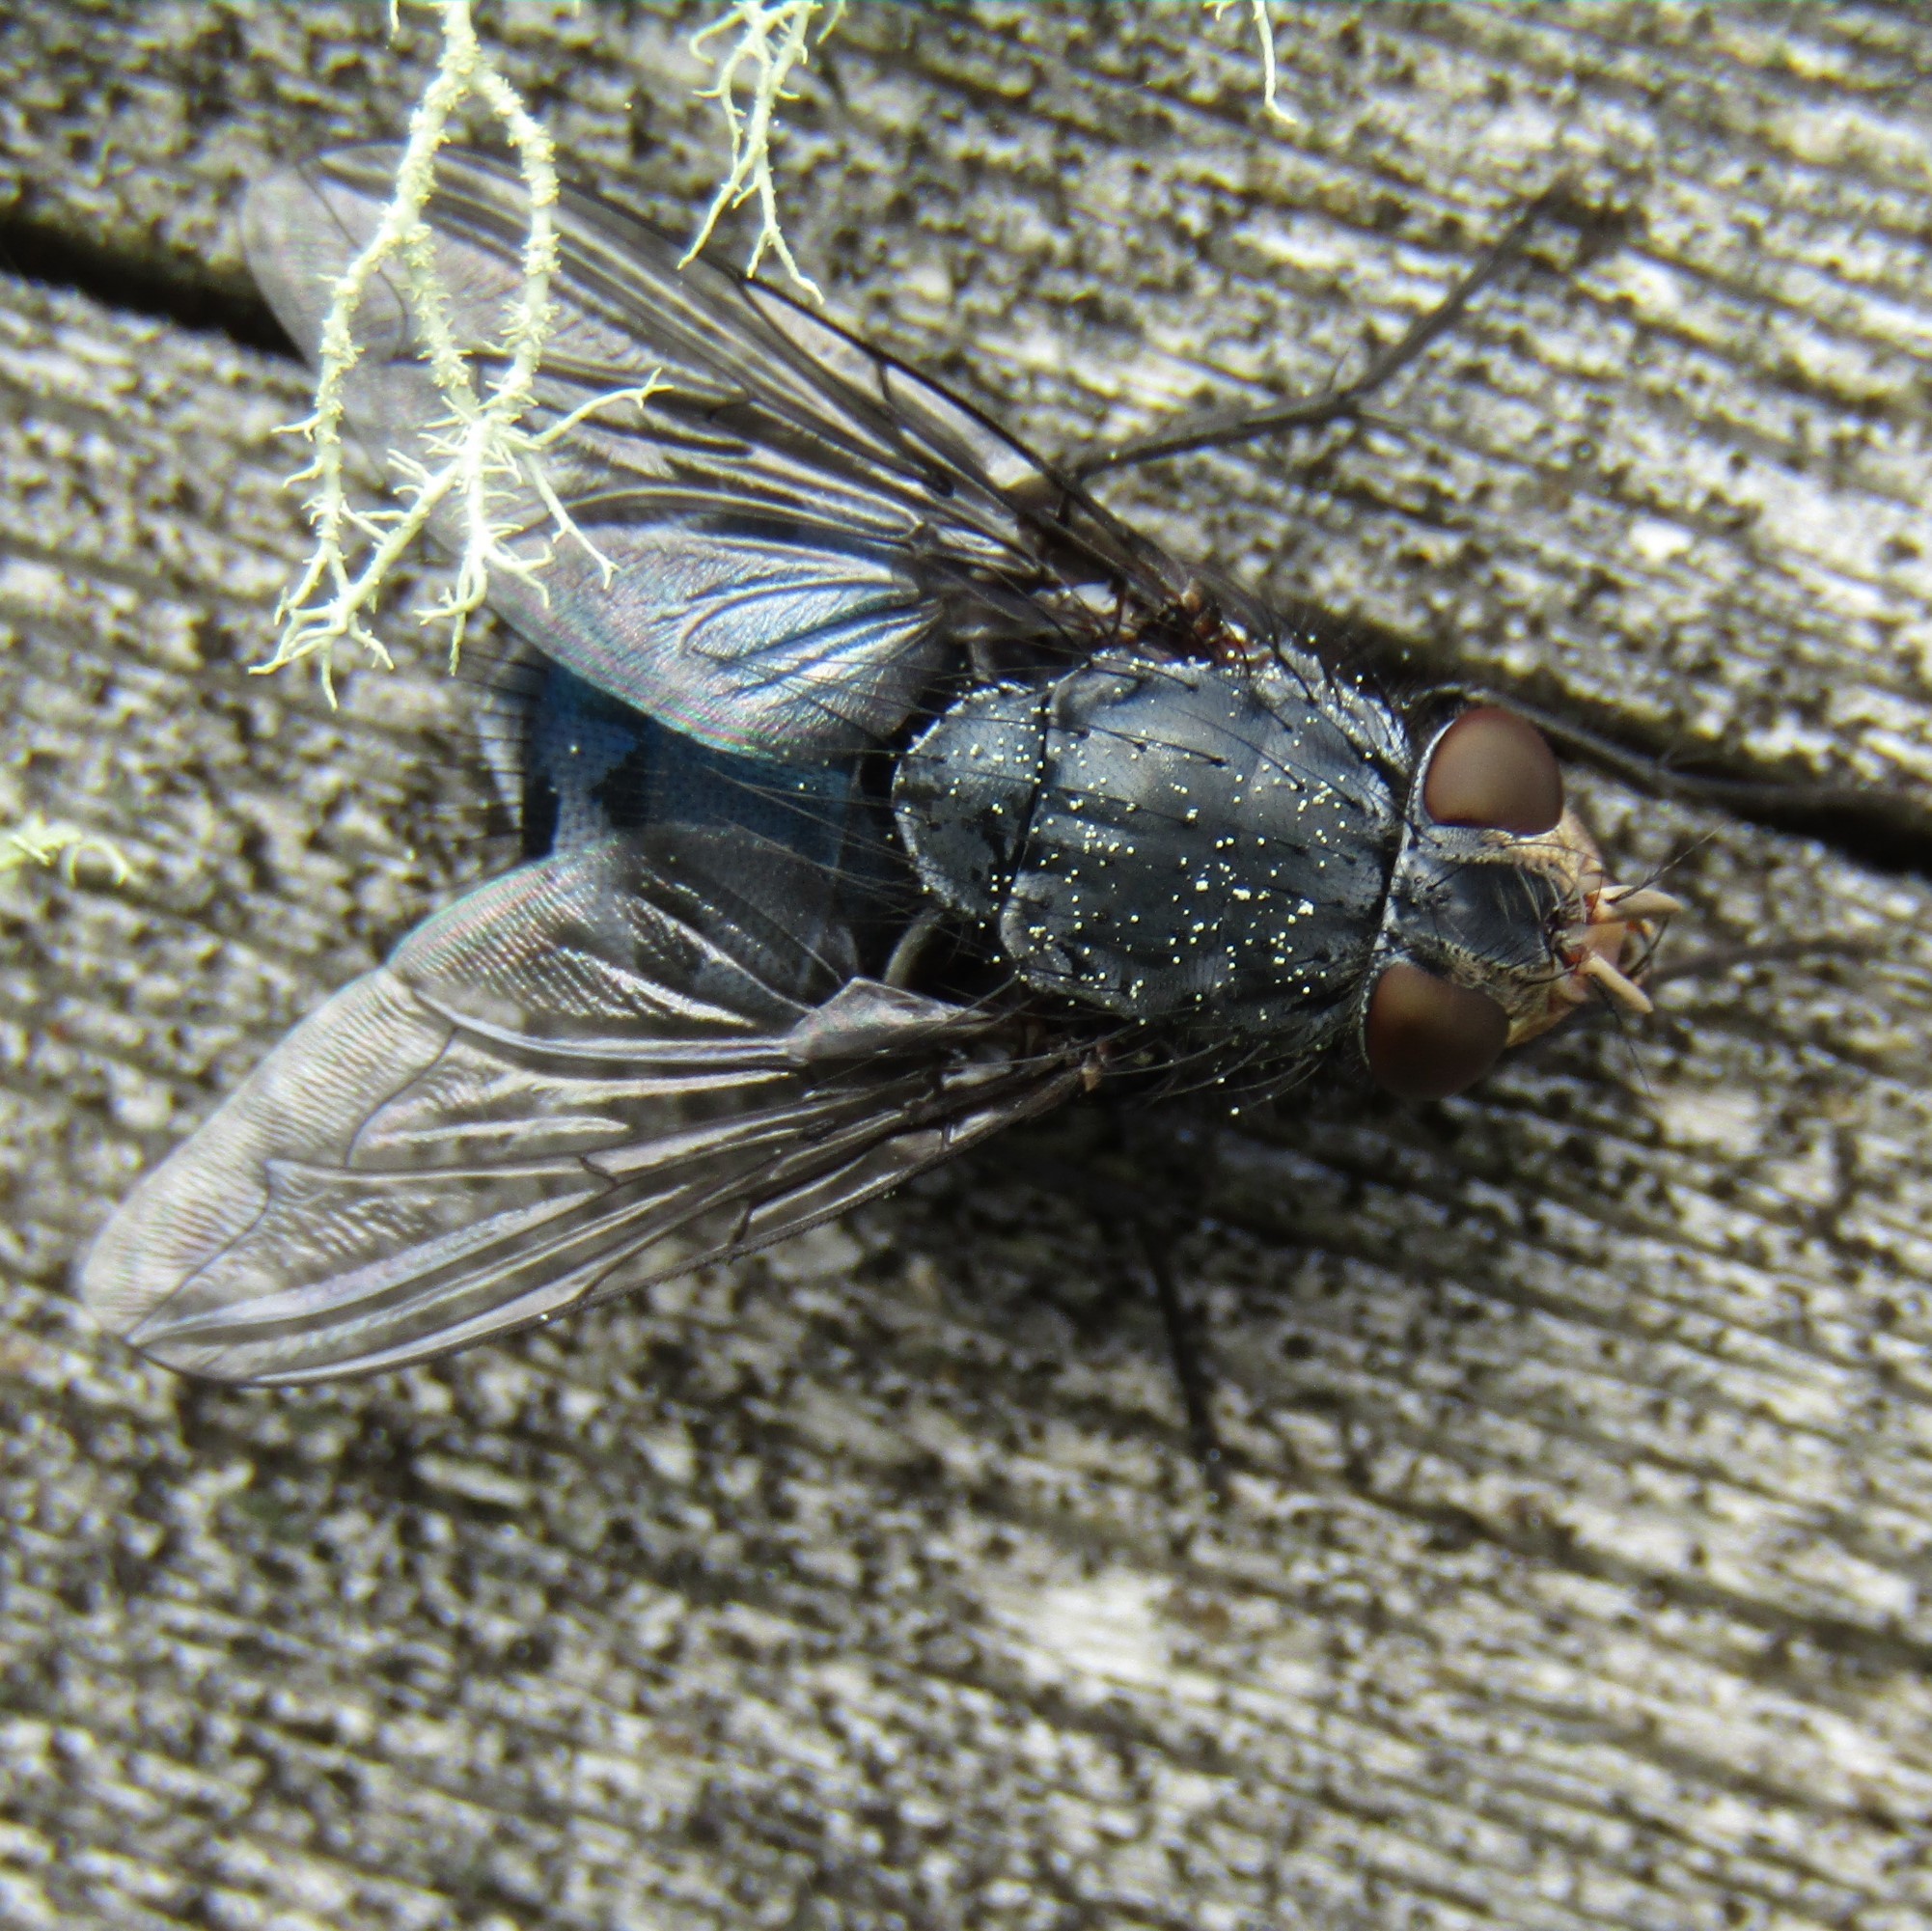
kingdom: Animalia
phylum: Arthropoda
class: Insecta
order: Diptera
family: Calliphoridae
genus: Calliphora
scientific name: Calliphora vicina
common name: Common blow flie
